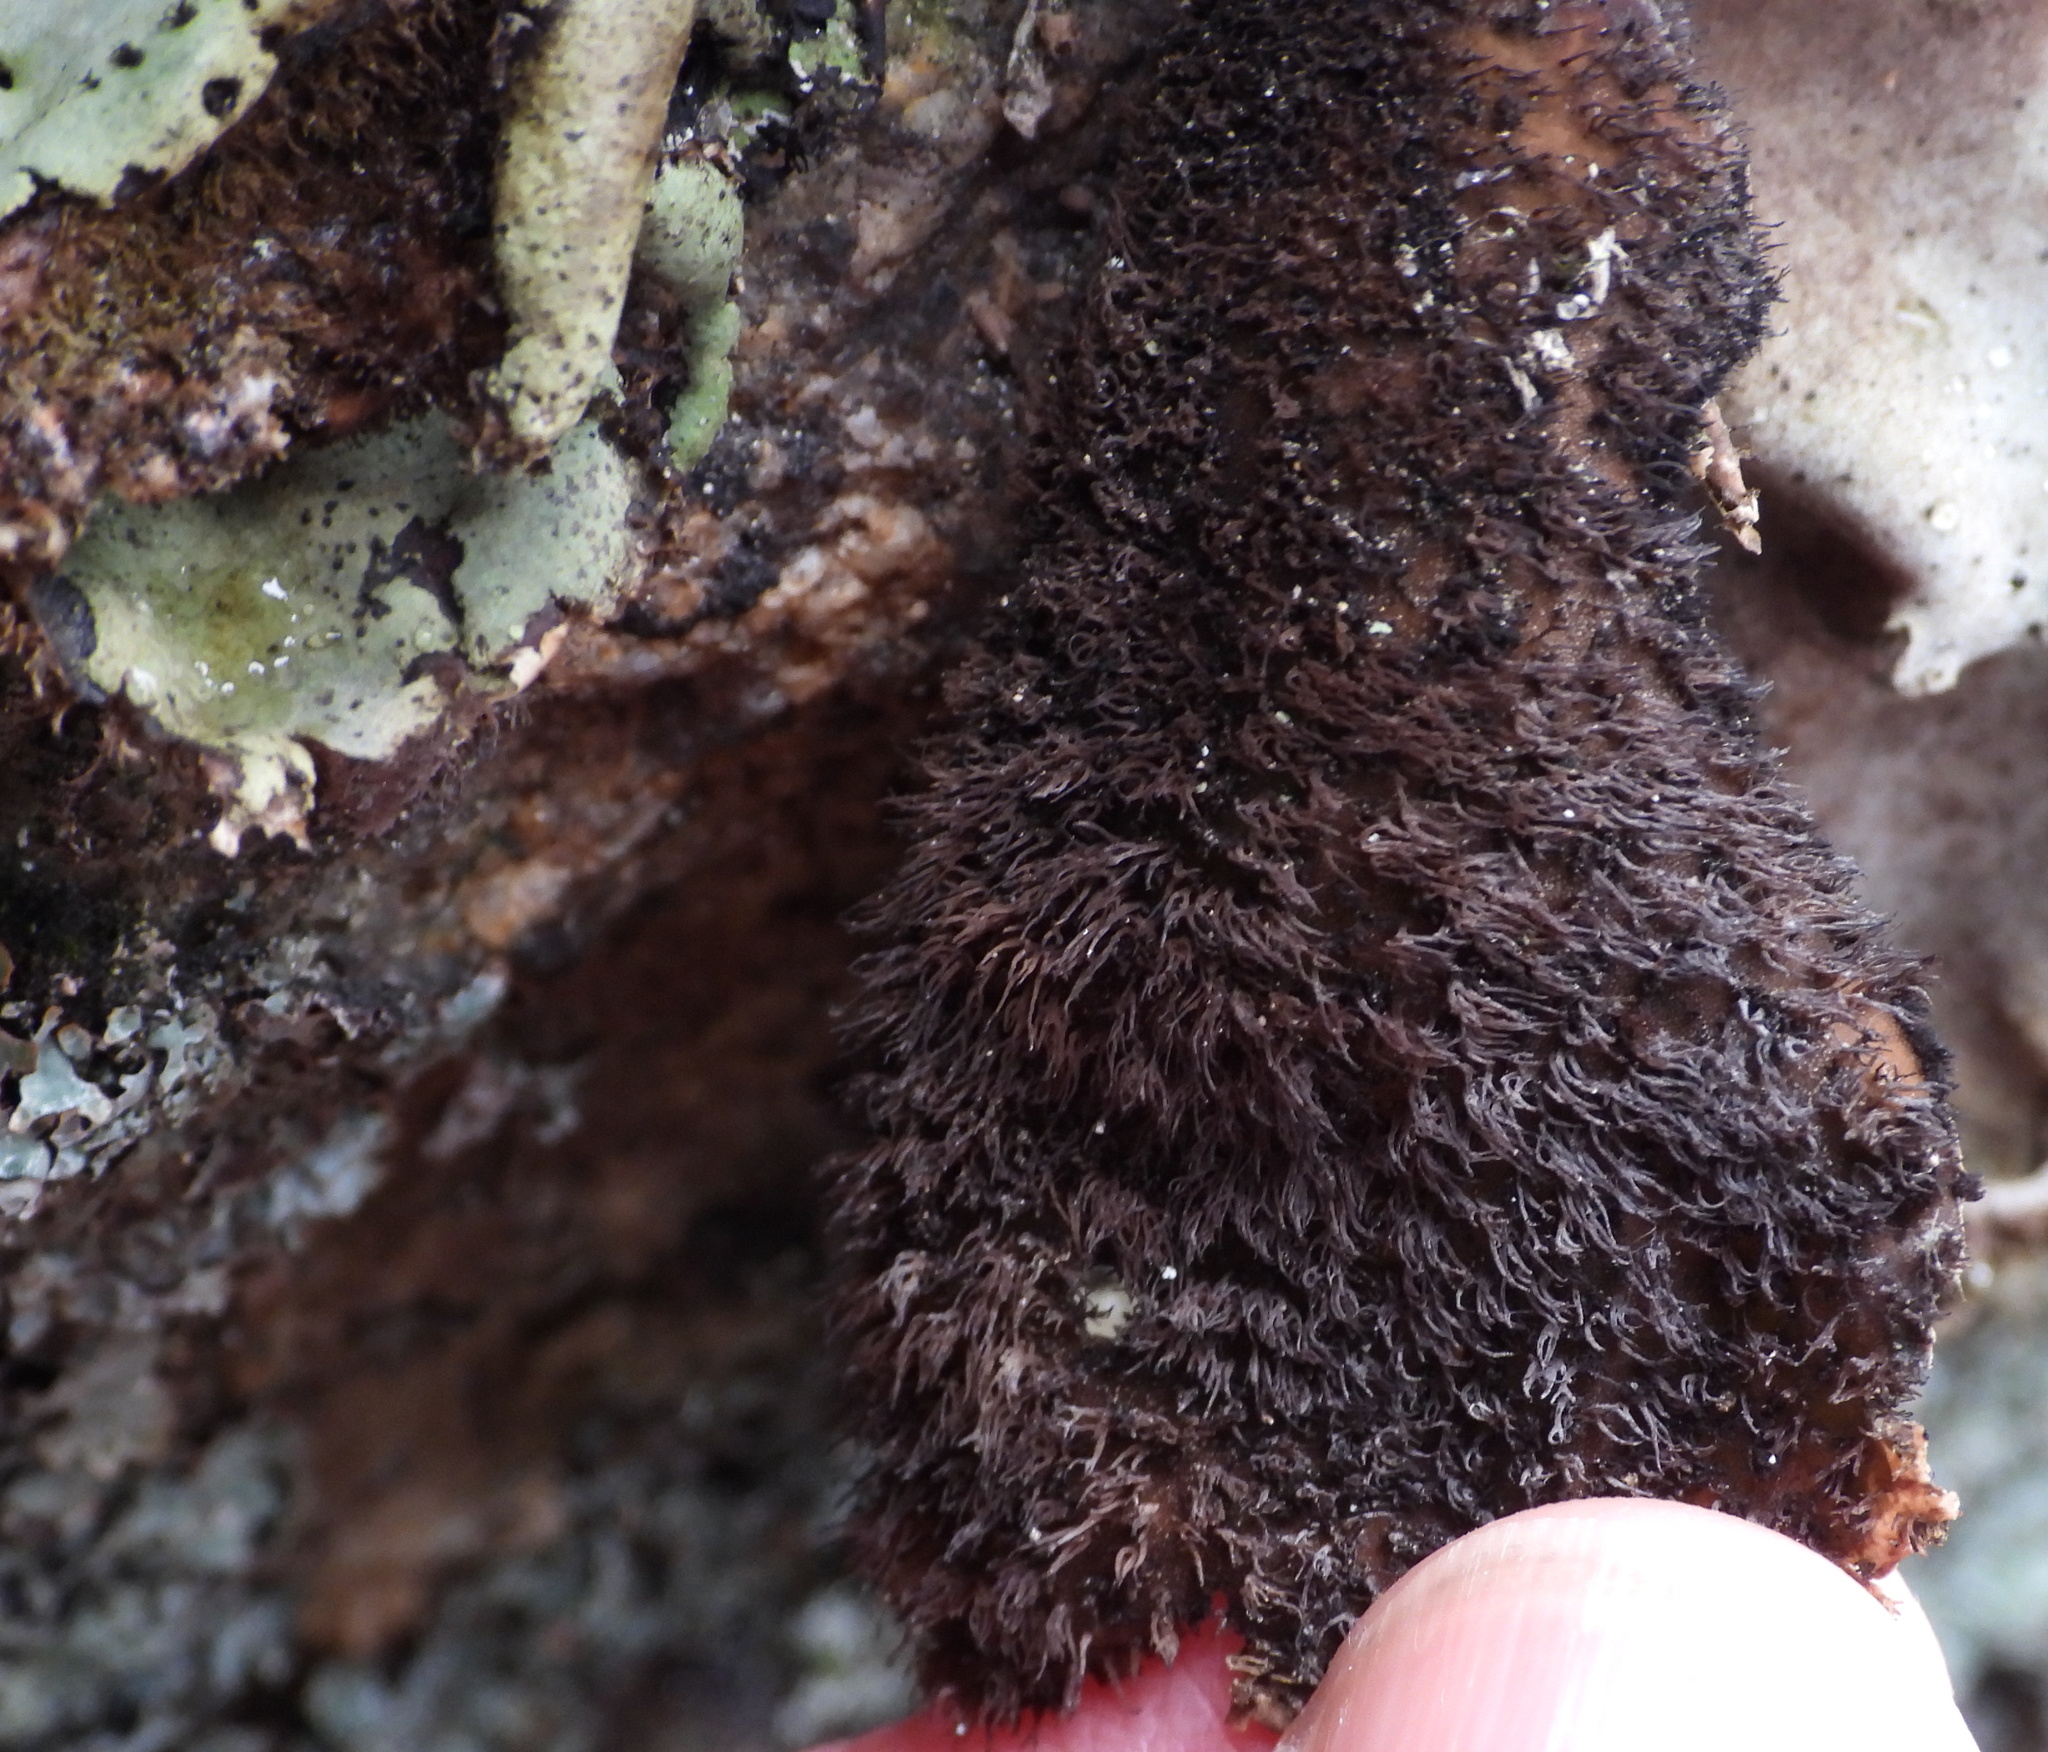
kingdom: Fungi
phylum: Ascomycota
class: Lecanoromycetes
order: Umbilicariales
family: Umbilicariaceae
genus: Umbilicaria
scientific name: Umbilicaria hirsuta
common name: Granulating rocktripe lichen
